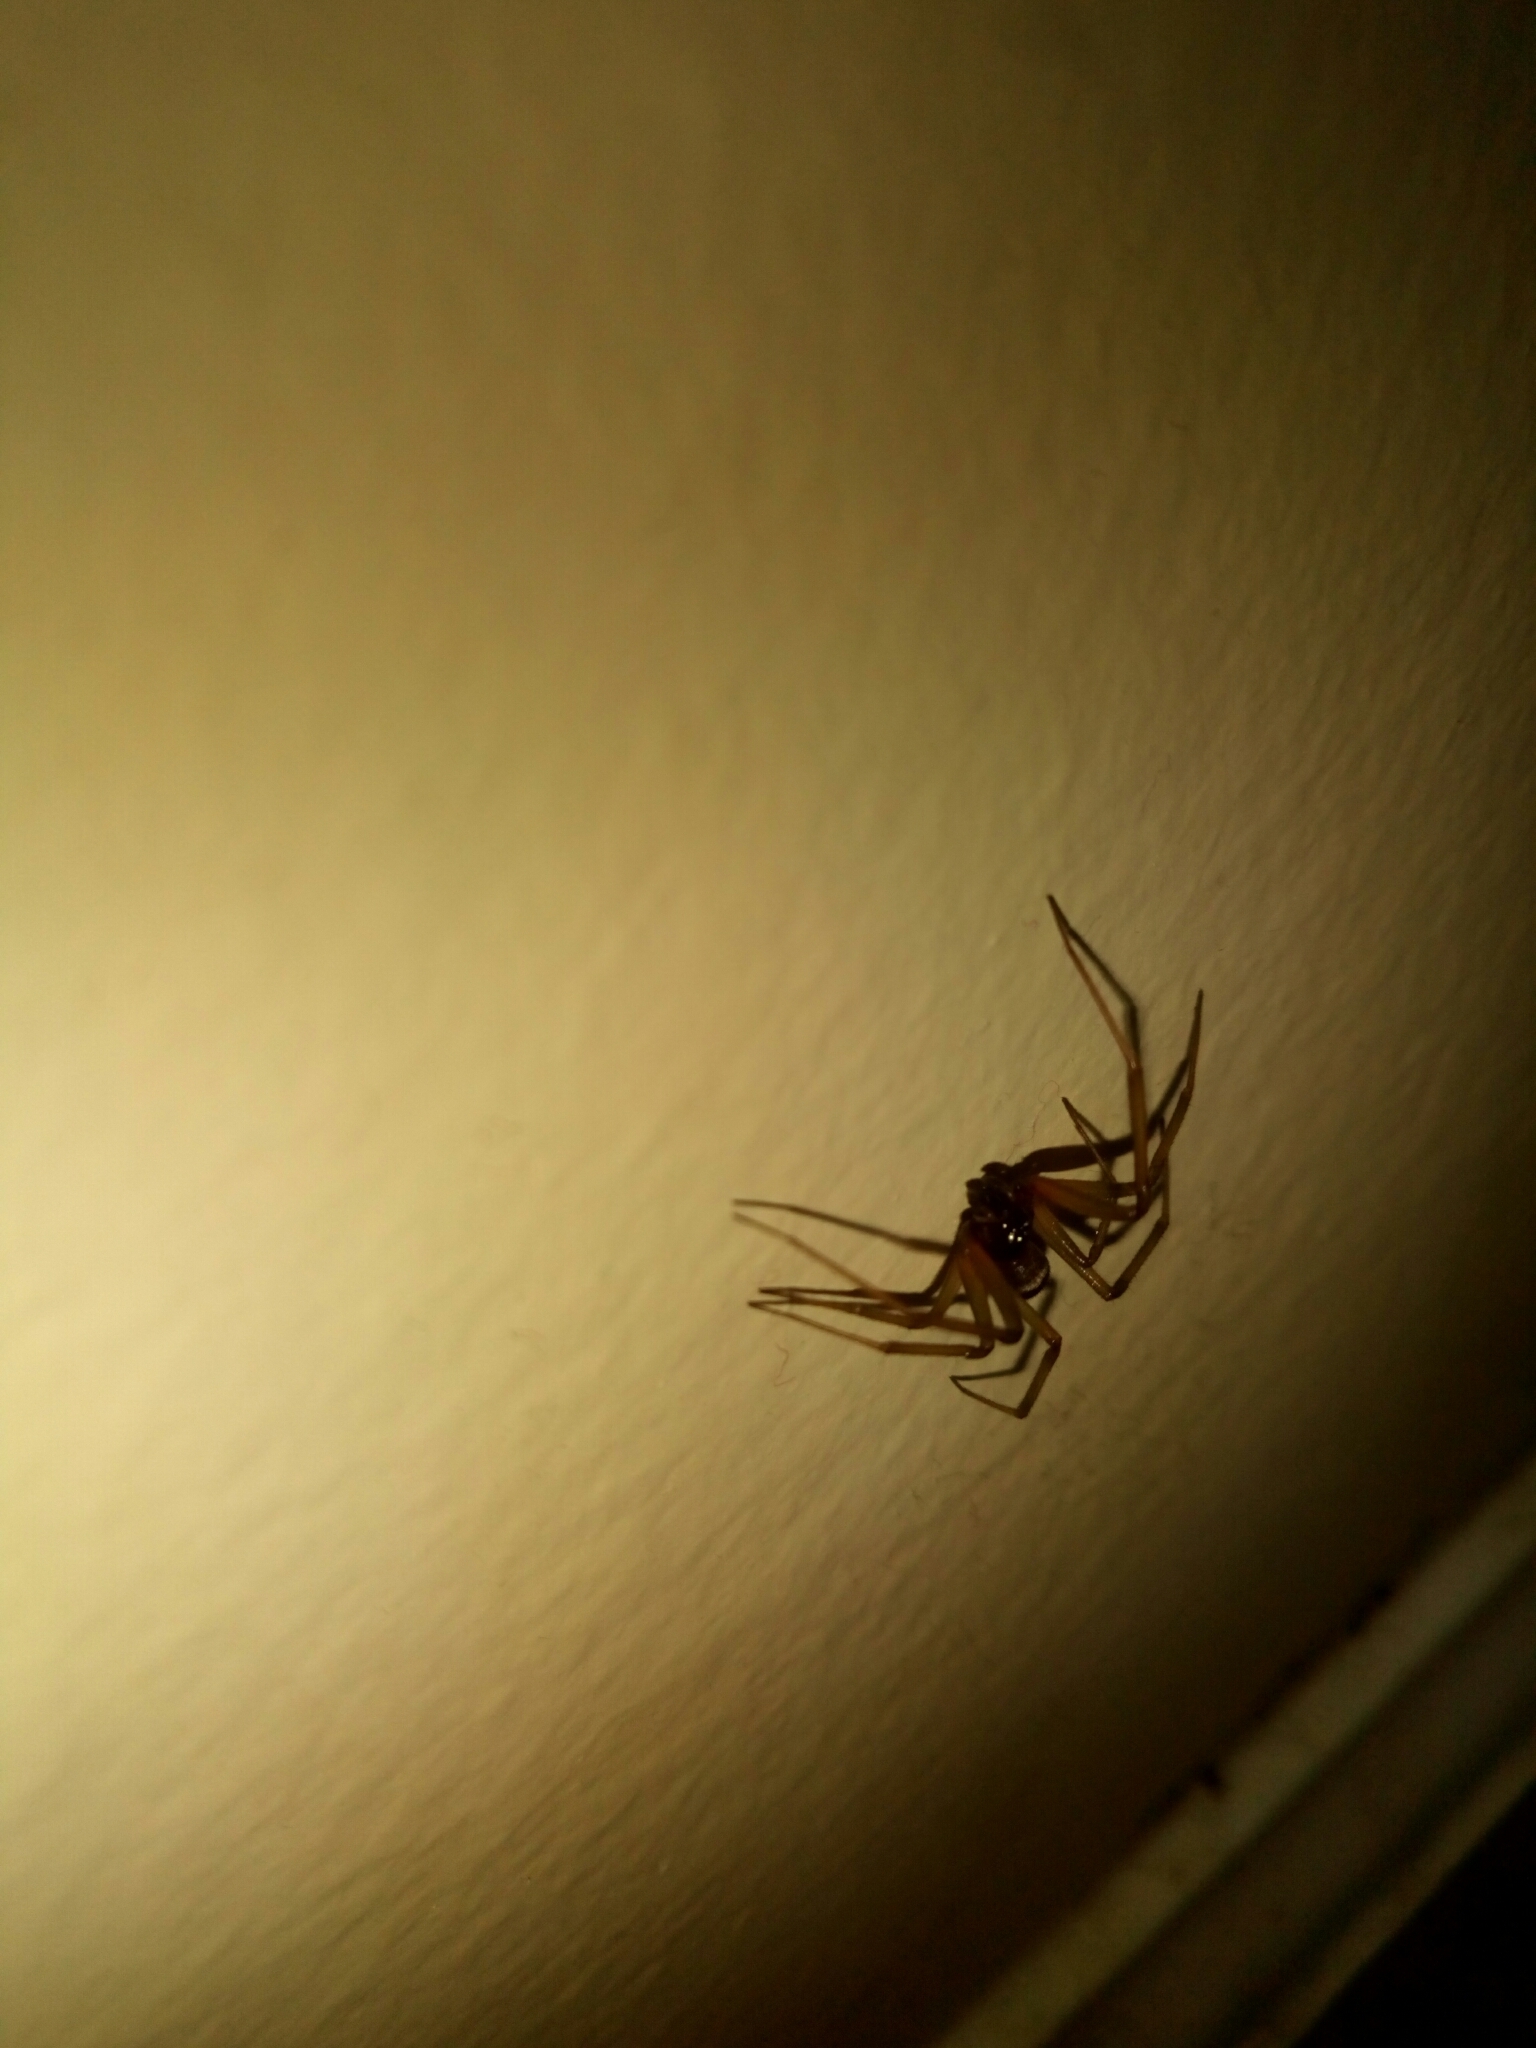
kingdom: Animalia
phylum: Arthropoda
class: Arachnida
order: Araneae
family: Theridiidae
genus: Steatoda
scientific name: Steatoda grossa
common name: False black widow
